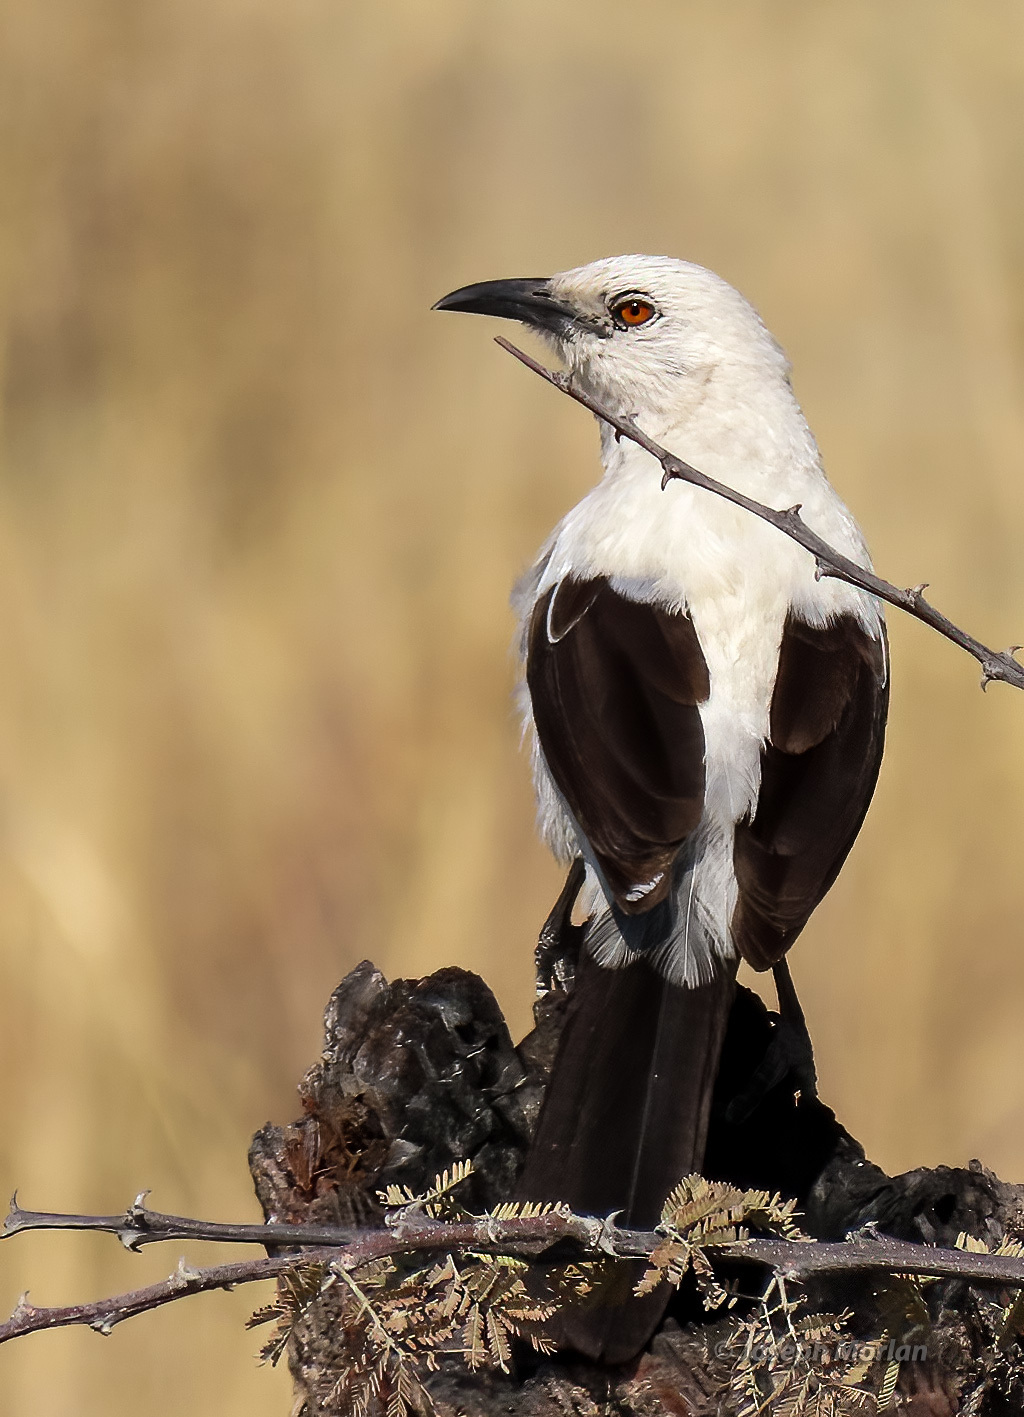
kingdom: Animalia
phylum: Chordata
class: Aves
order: Passeriformes
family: Leiothrichidae
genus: Turdoides
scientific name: Turdoides bicolor
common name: Southern pied babbler
